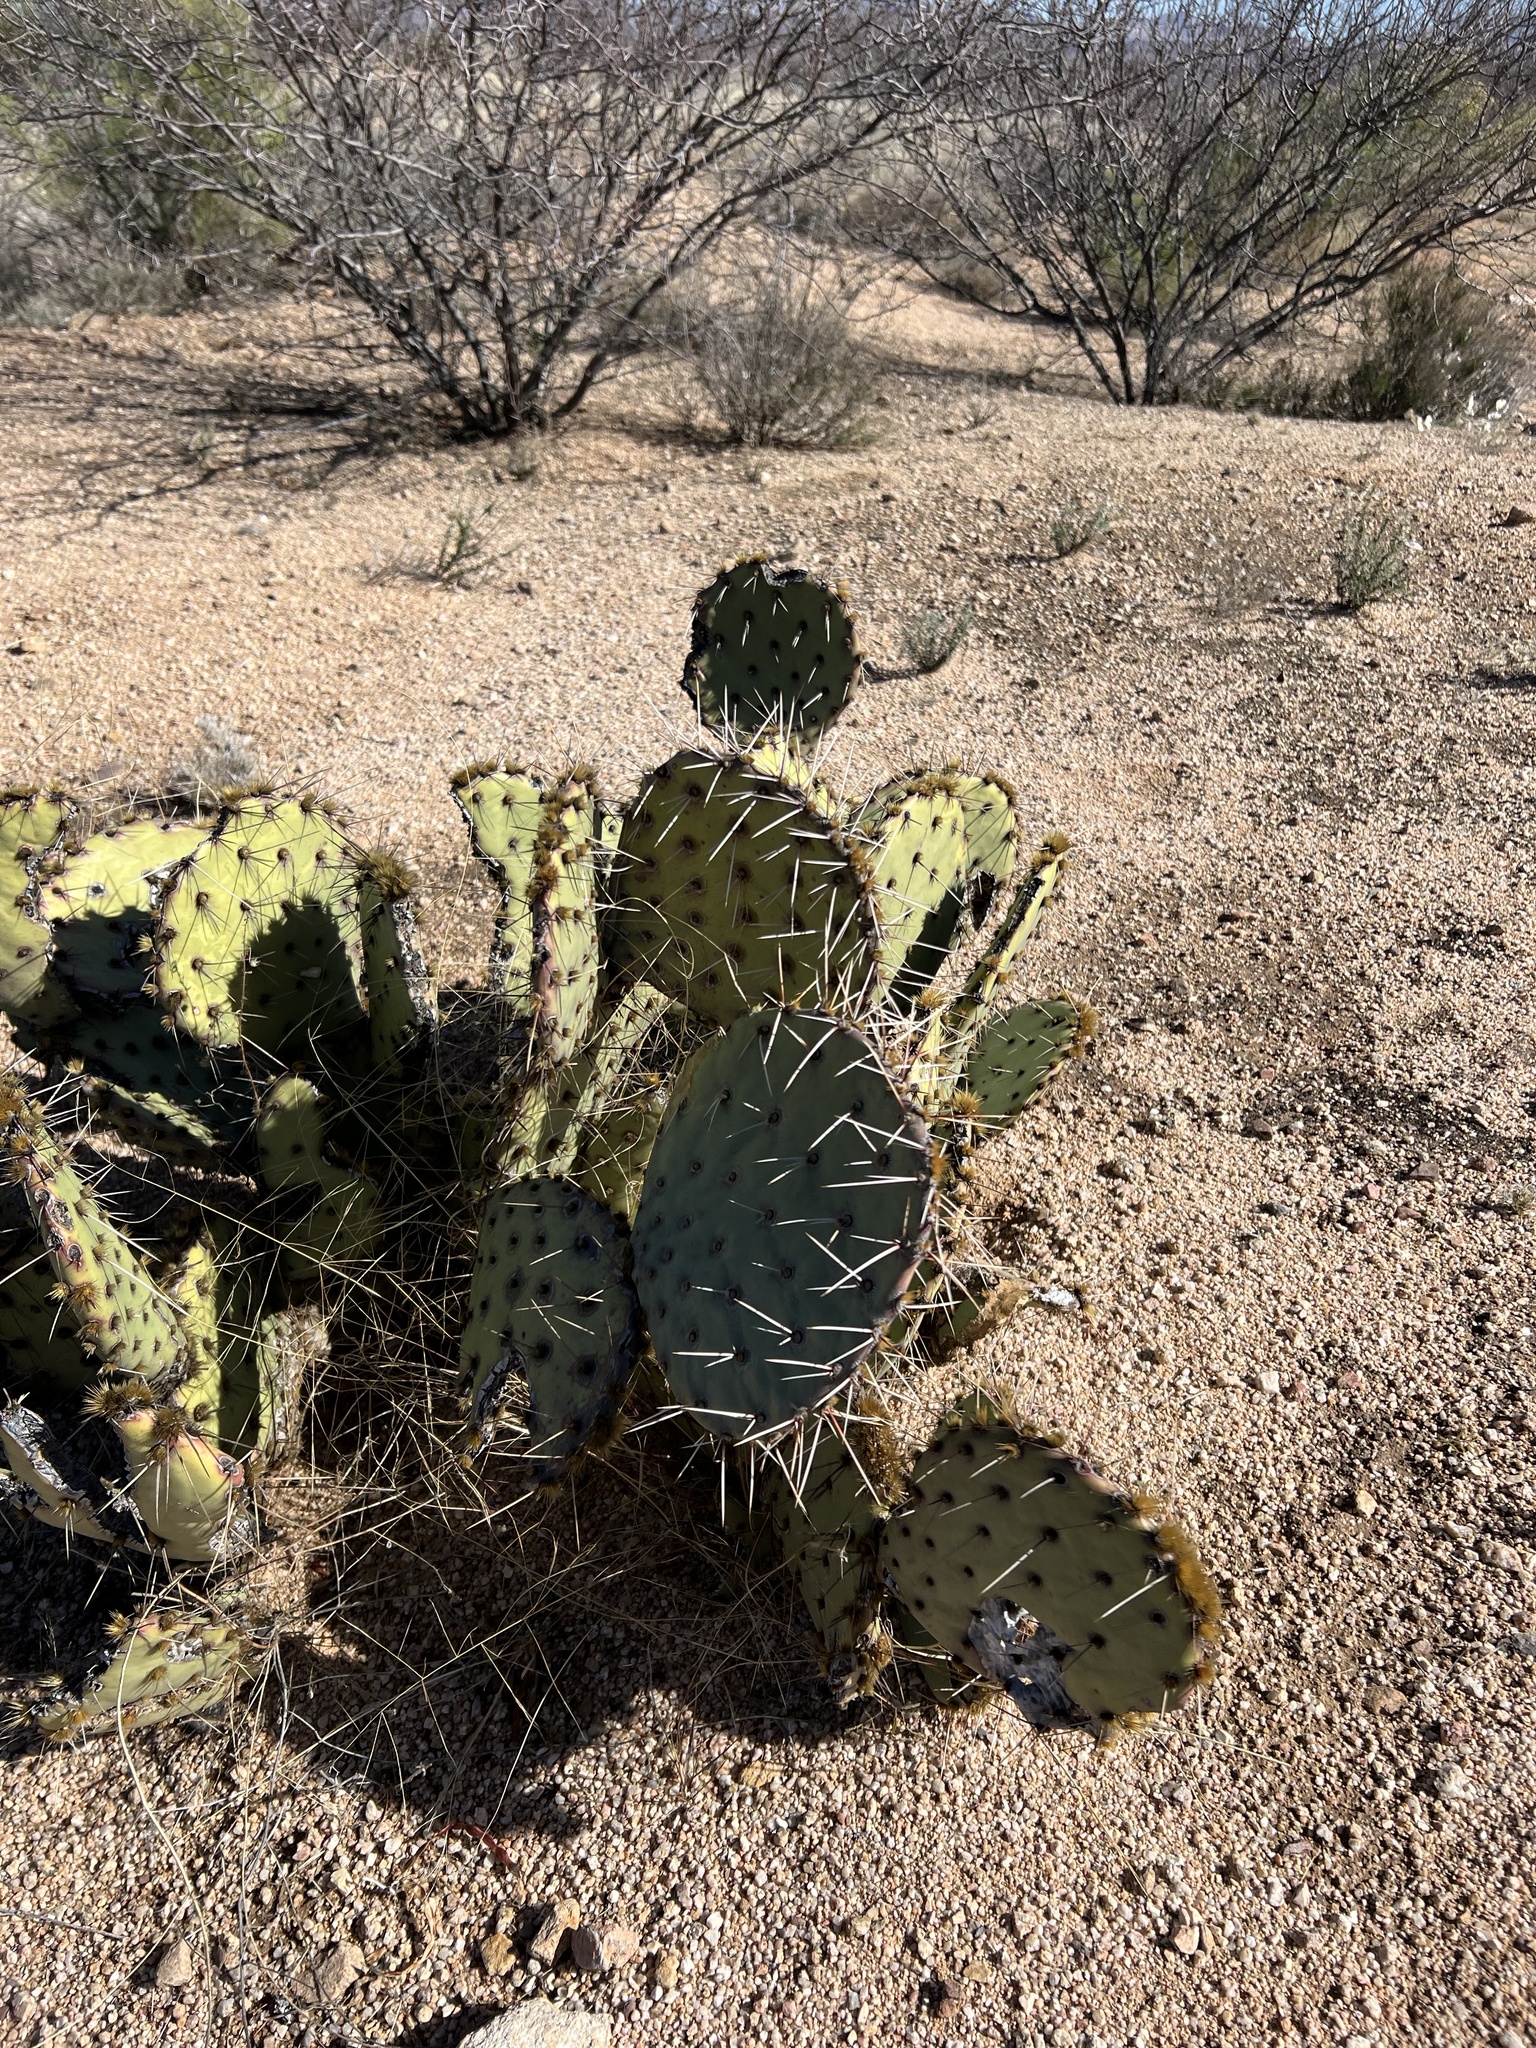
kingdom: Plantae
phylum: Tracheophyta
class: Magnoliopsida
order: Caryophyllales
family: Cactaceae
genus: Opuntia
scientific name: Opuntia engelmannii
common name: Cactus-apple
